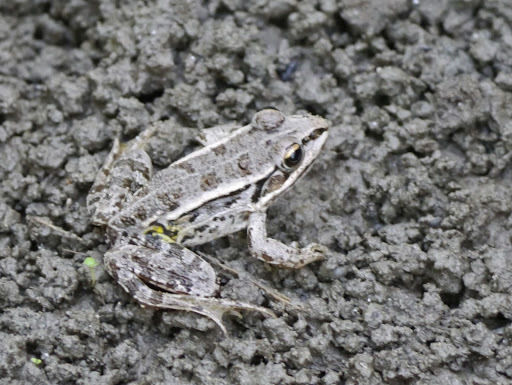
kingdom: Animalia
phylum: Chordata
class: Amphibia
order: Anura
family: Ranidae
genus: Pelophylax
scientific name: Pelophylax
